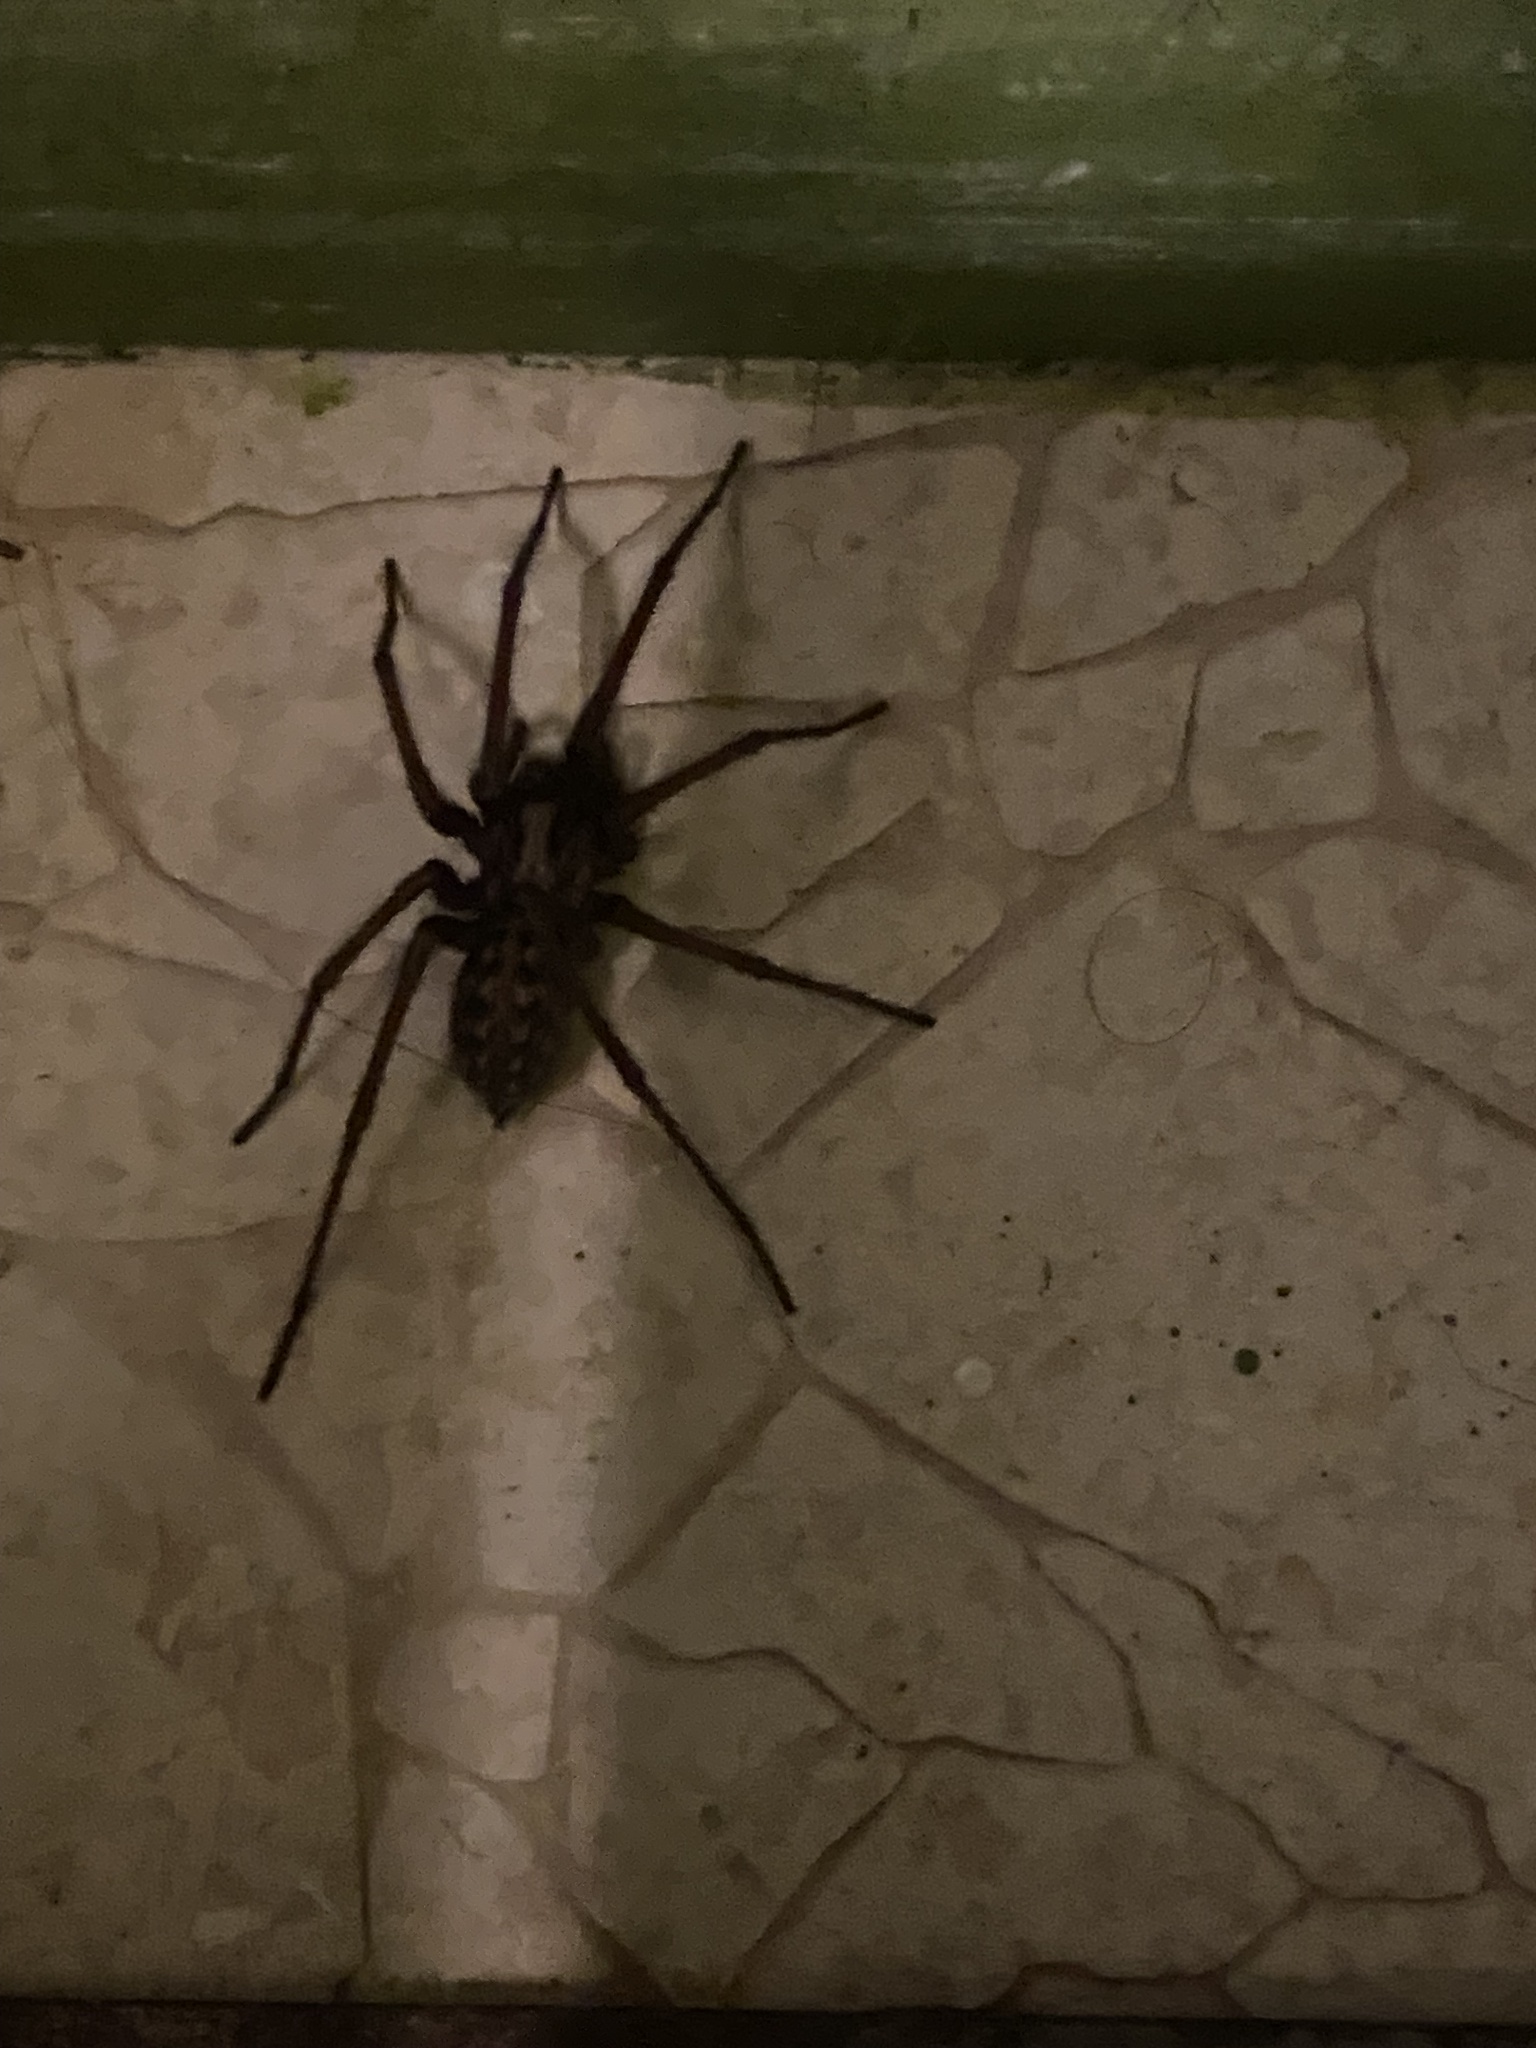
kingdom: Animalia
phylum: Arthropoda
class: Arachnida
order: Araneae
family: Agelenidae
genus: Eratigena
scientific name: Eratigena duellica
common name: Giant house spider
